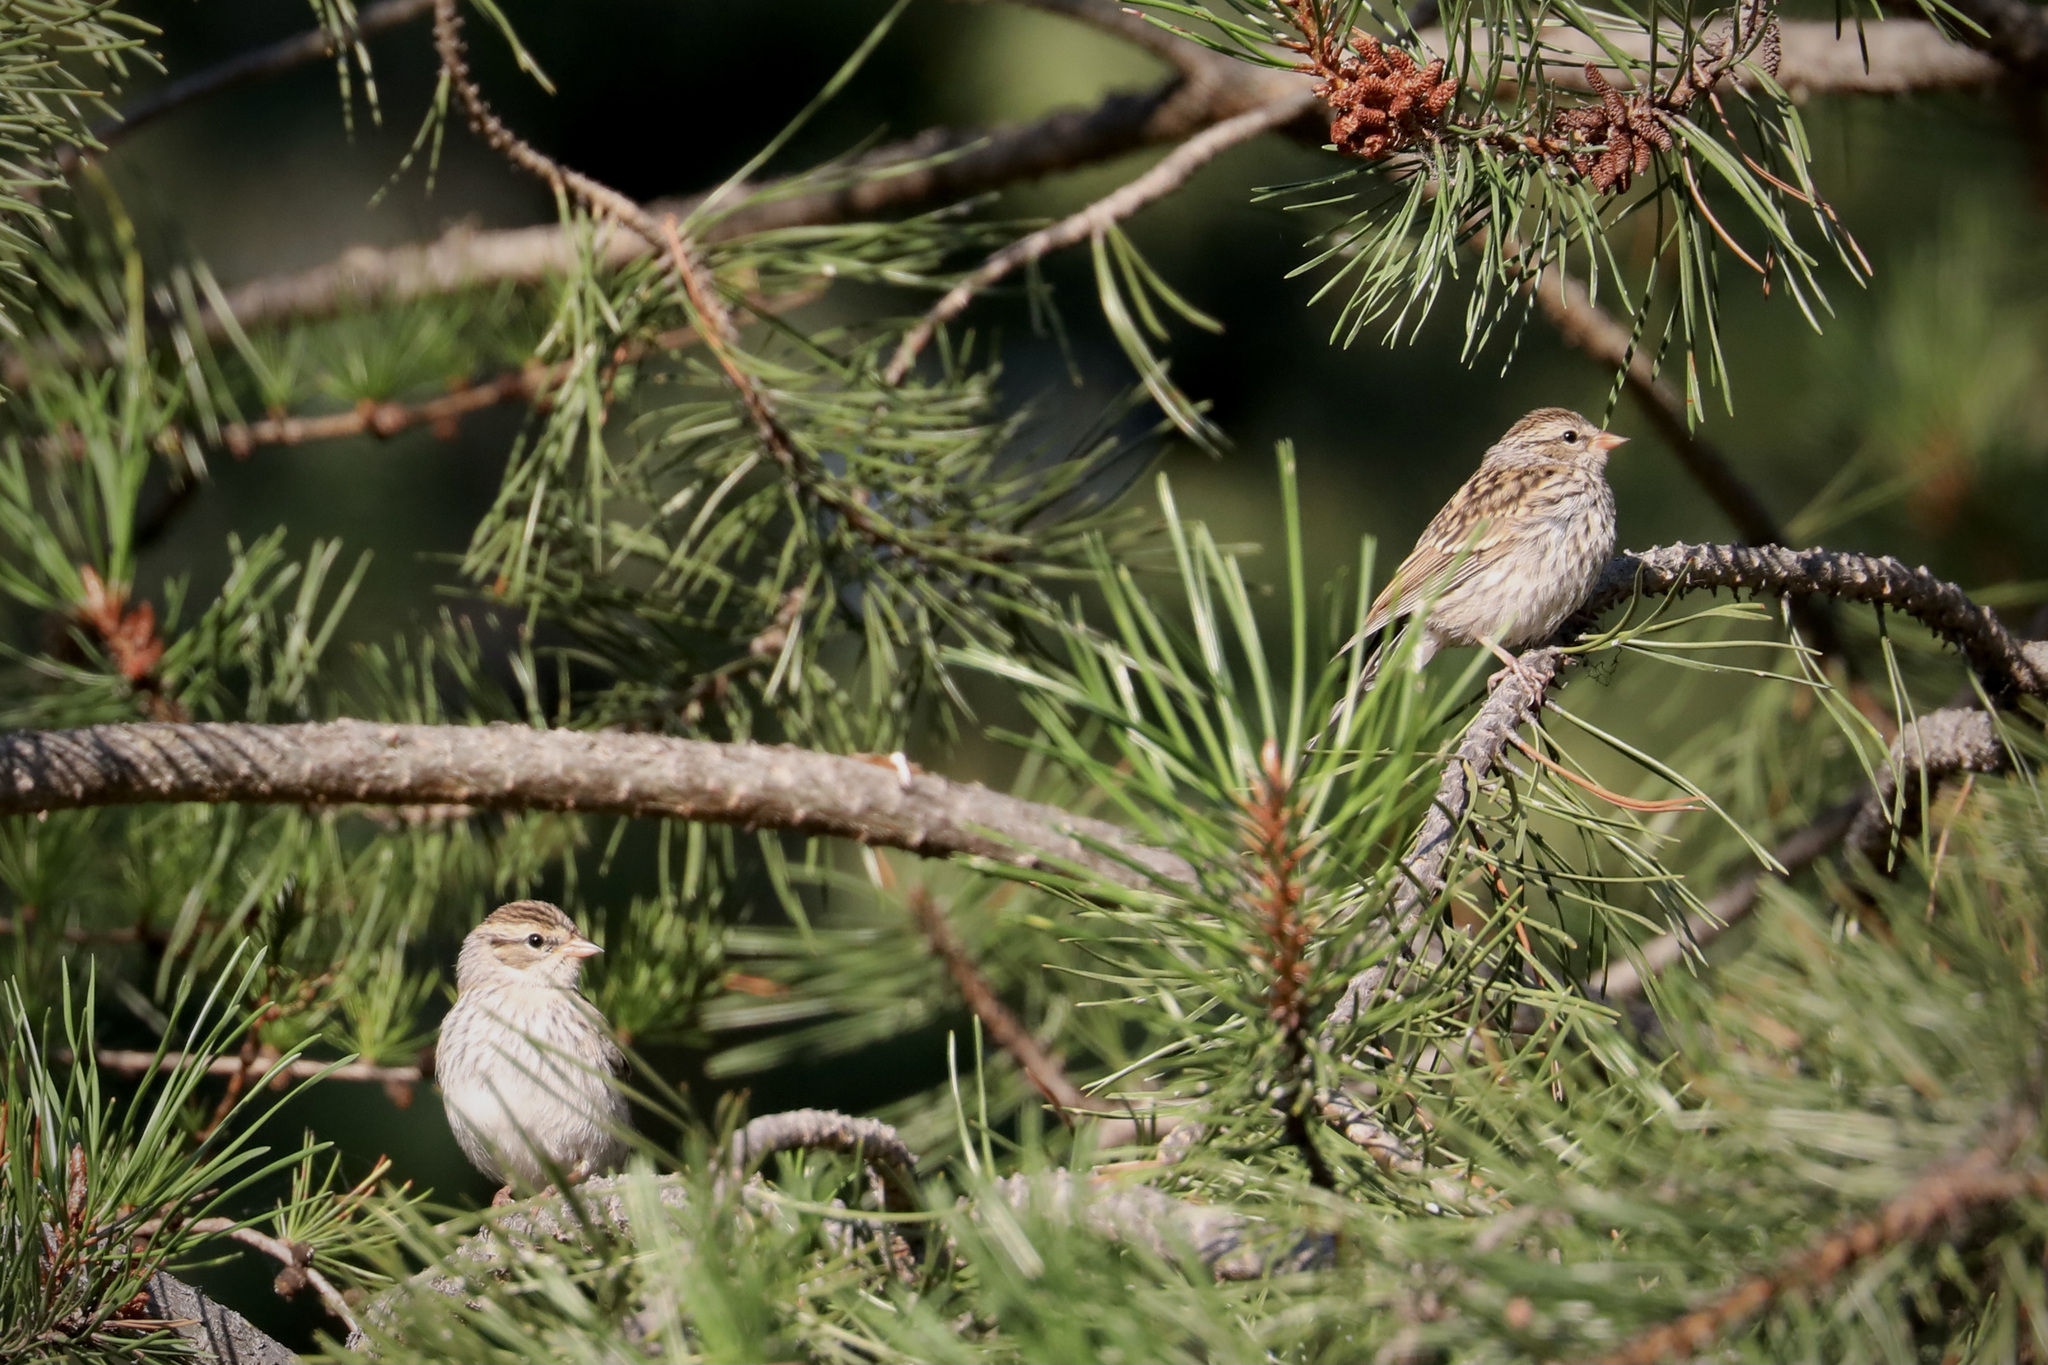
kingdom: Animalia
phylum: Chordata
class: Aves
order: Passeriformes
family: Passerellidae
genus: Spizella
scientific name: Spizella passerina
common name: Chipping sparrow
